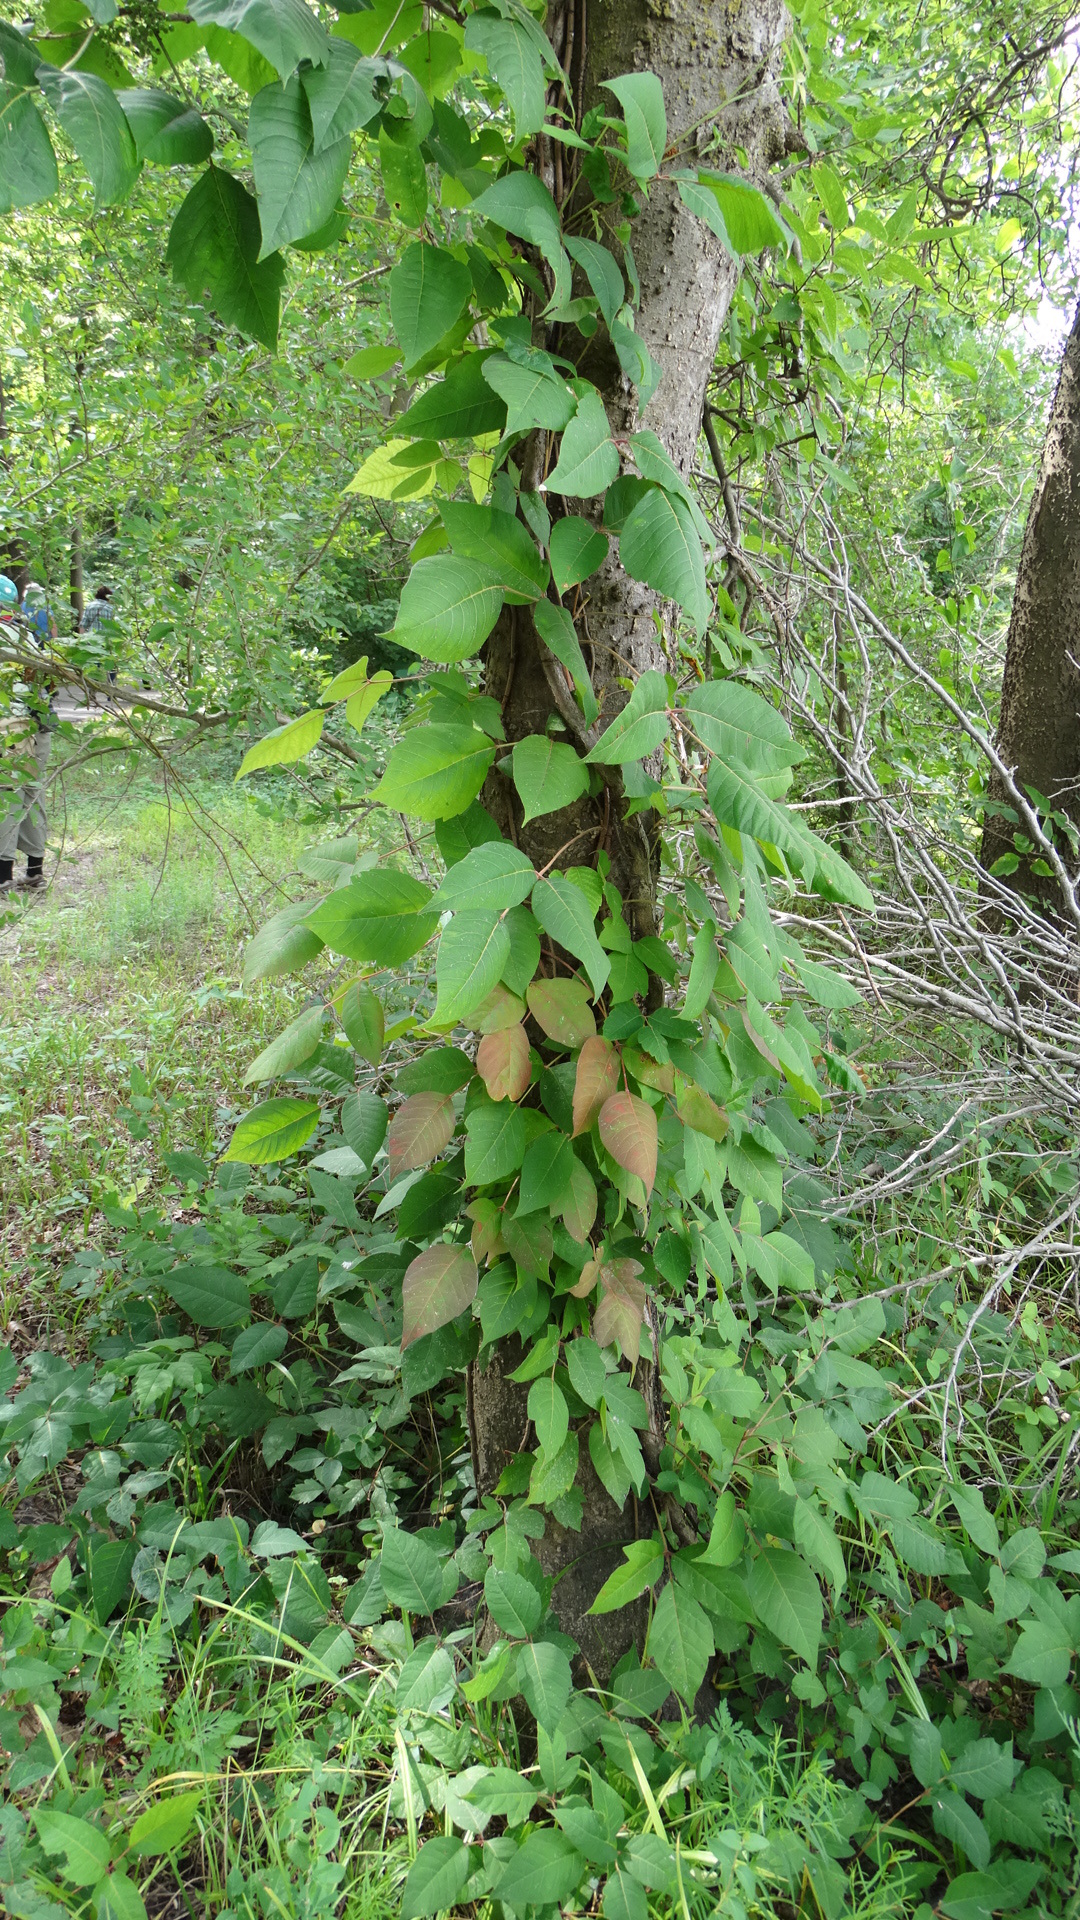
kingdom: Plantae
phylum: Tracheophyta
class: Magnoliopsida
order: Sapindales
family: Anacardiaceae
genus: Toxicodendron
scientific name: Toxicodendron radicans
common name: Poison ivy
